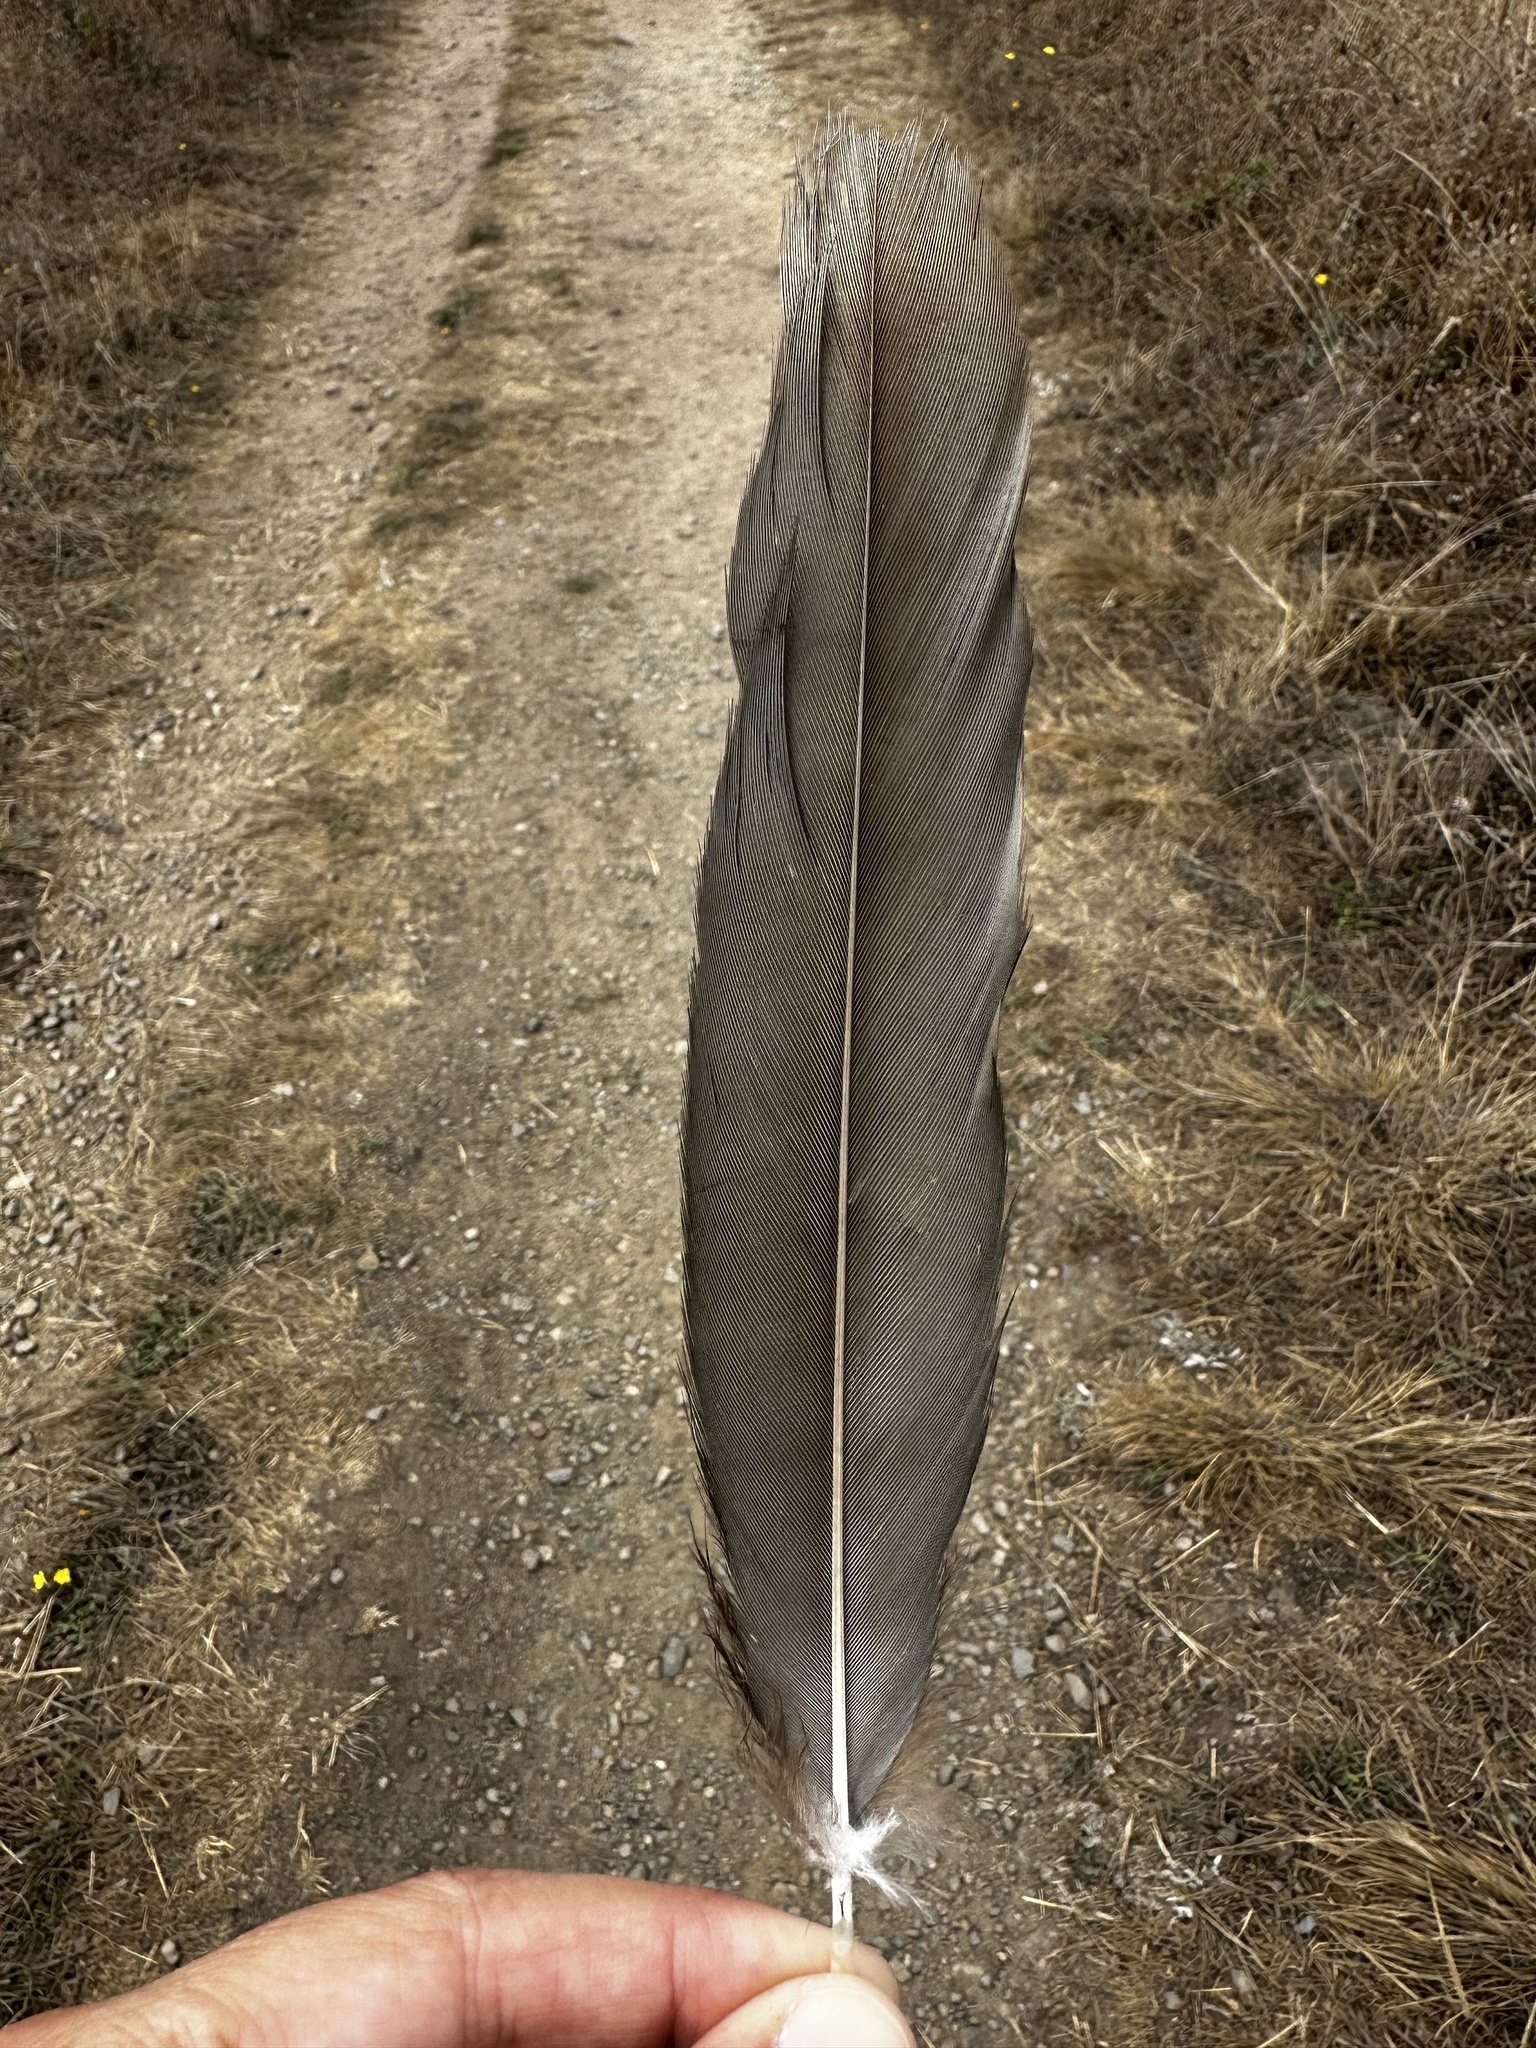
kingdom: Animalia
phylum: Chordata
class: Aves
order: Accipitriformes
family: Cathartidae
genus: Cathartes
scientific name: Cathartes aura
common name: Turkey vulture
